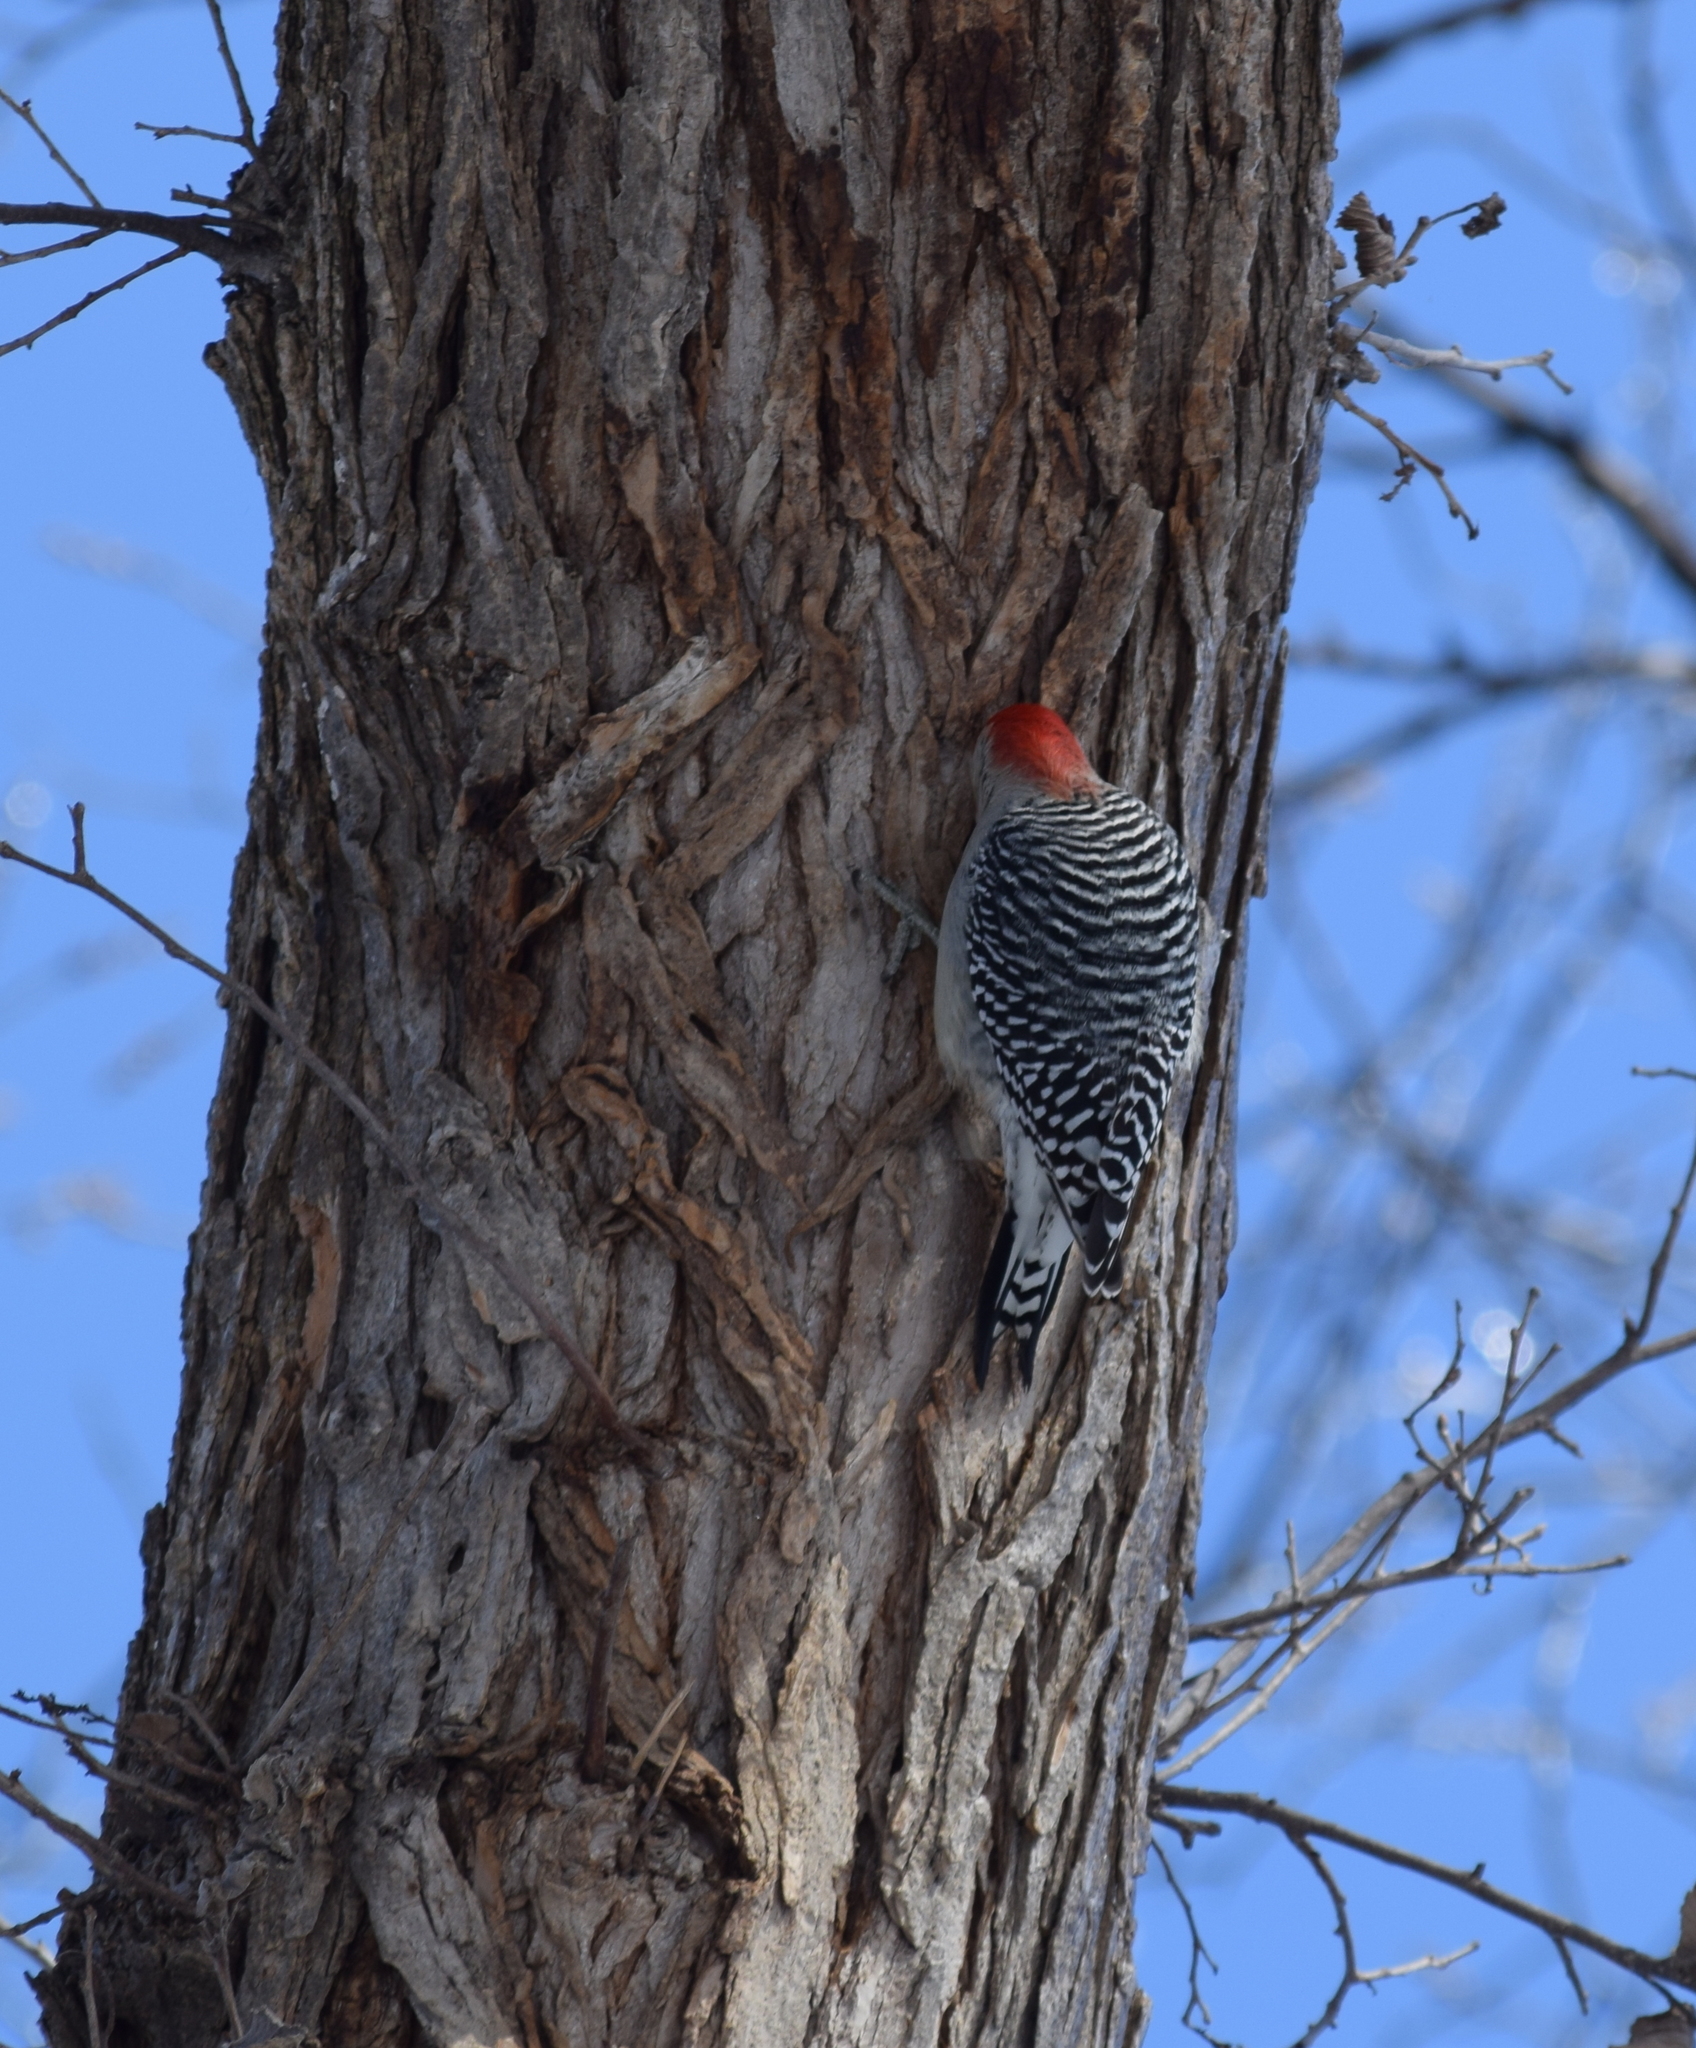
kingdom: Animalia
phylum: Chordata
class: Aves
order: Piciformes
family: Picidae
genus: Melanerpes
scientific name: Melanerpes carolinus
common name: Red-bellied woodpecker
